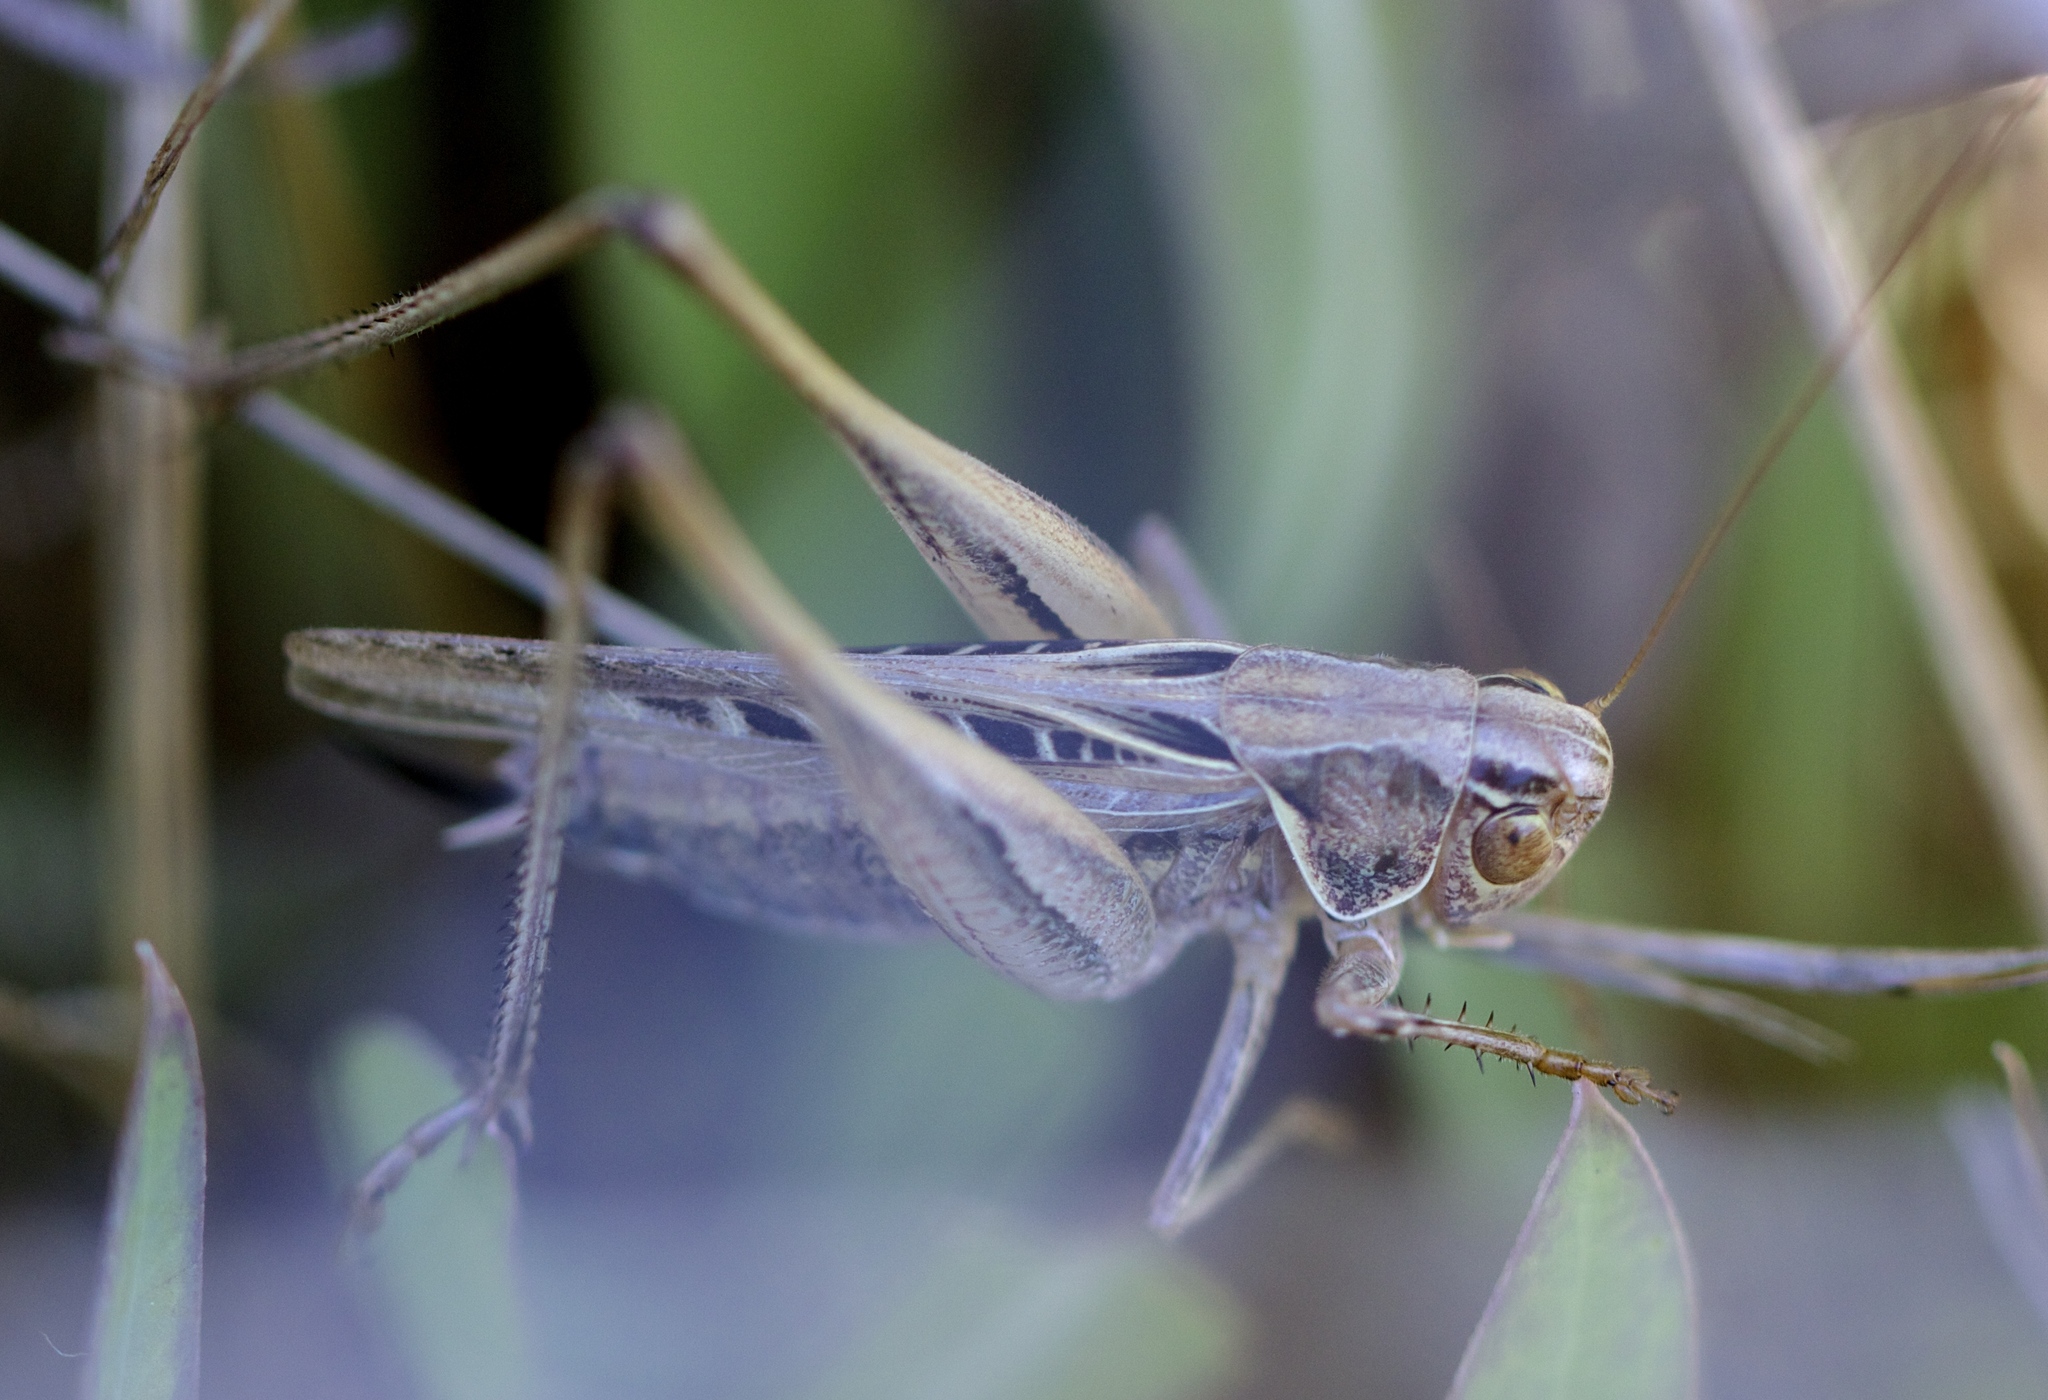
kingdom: Animalia
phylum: Arthropoda
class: Insecta
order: Orthoptera
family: Tettigoniidae
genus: Tessellana
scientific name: Tessellana tessellata
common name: Grasshopper
